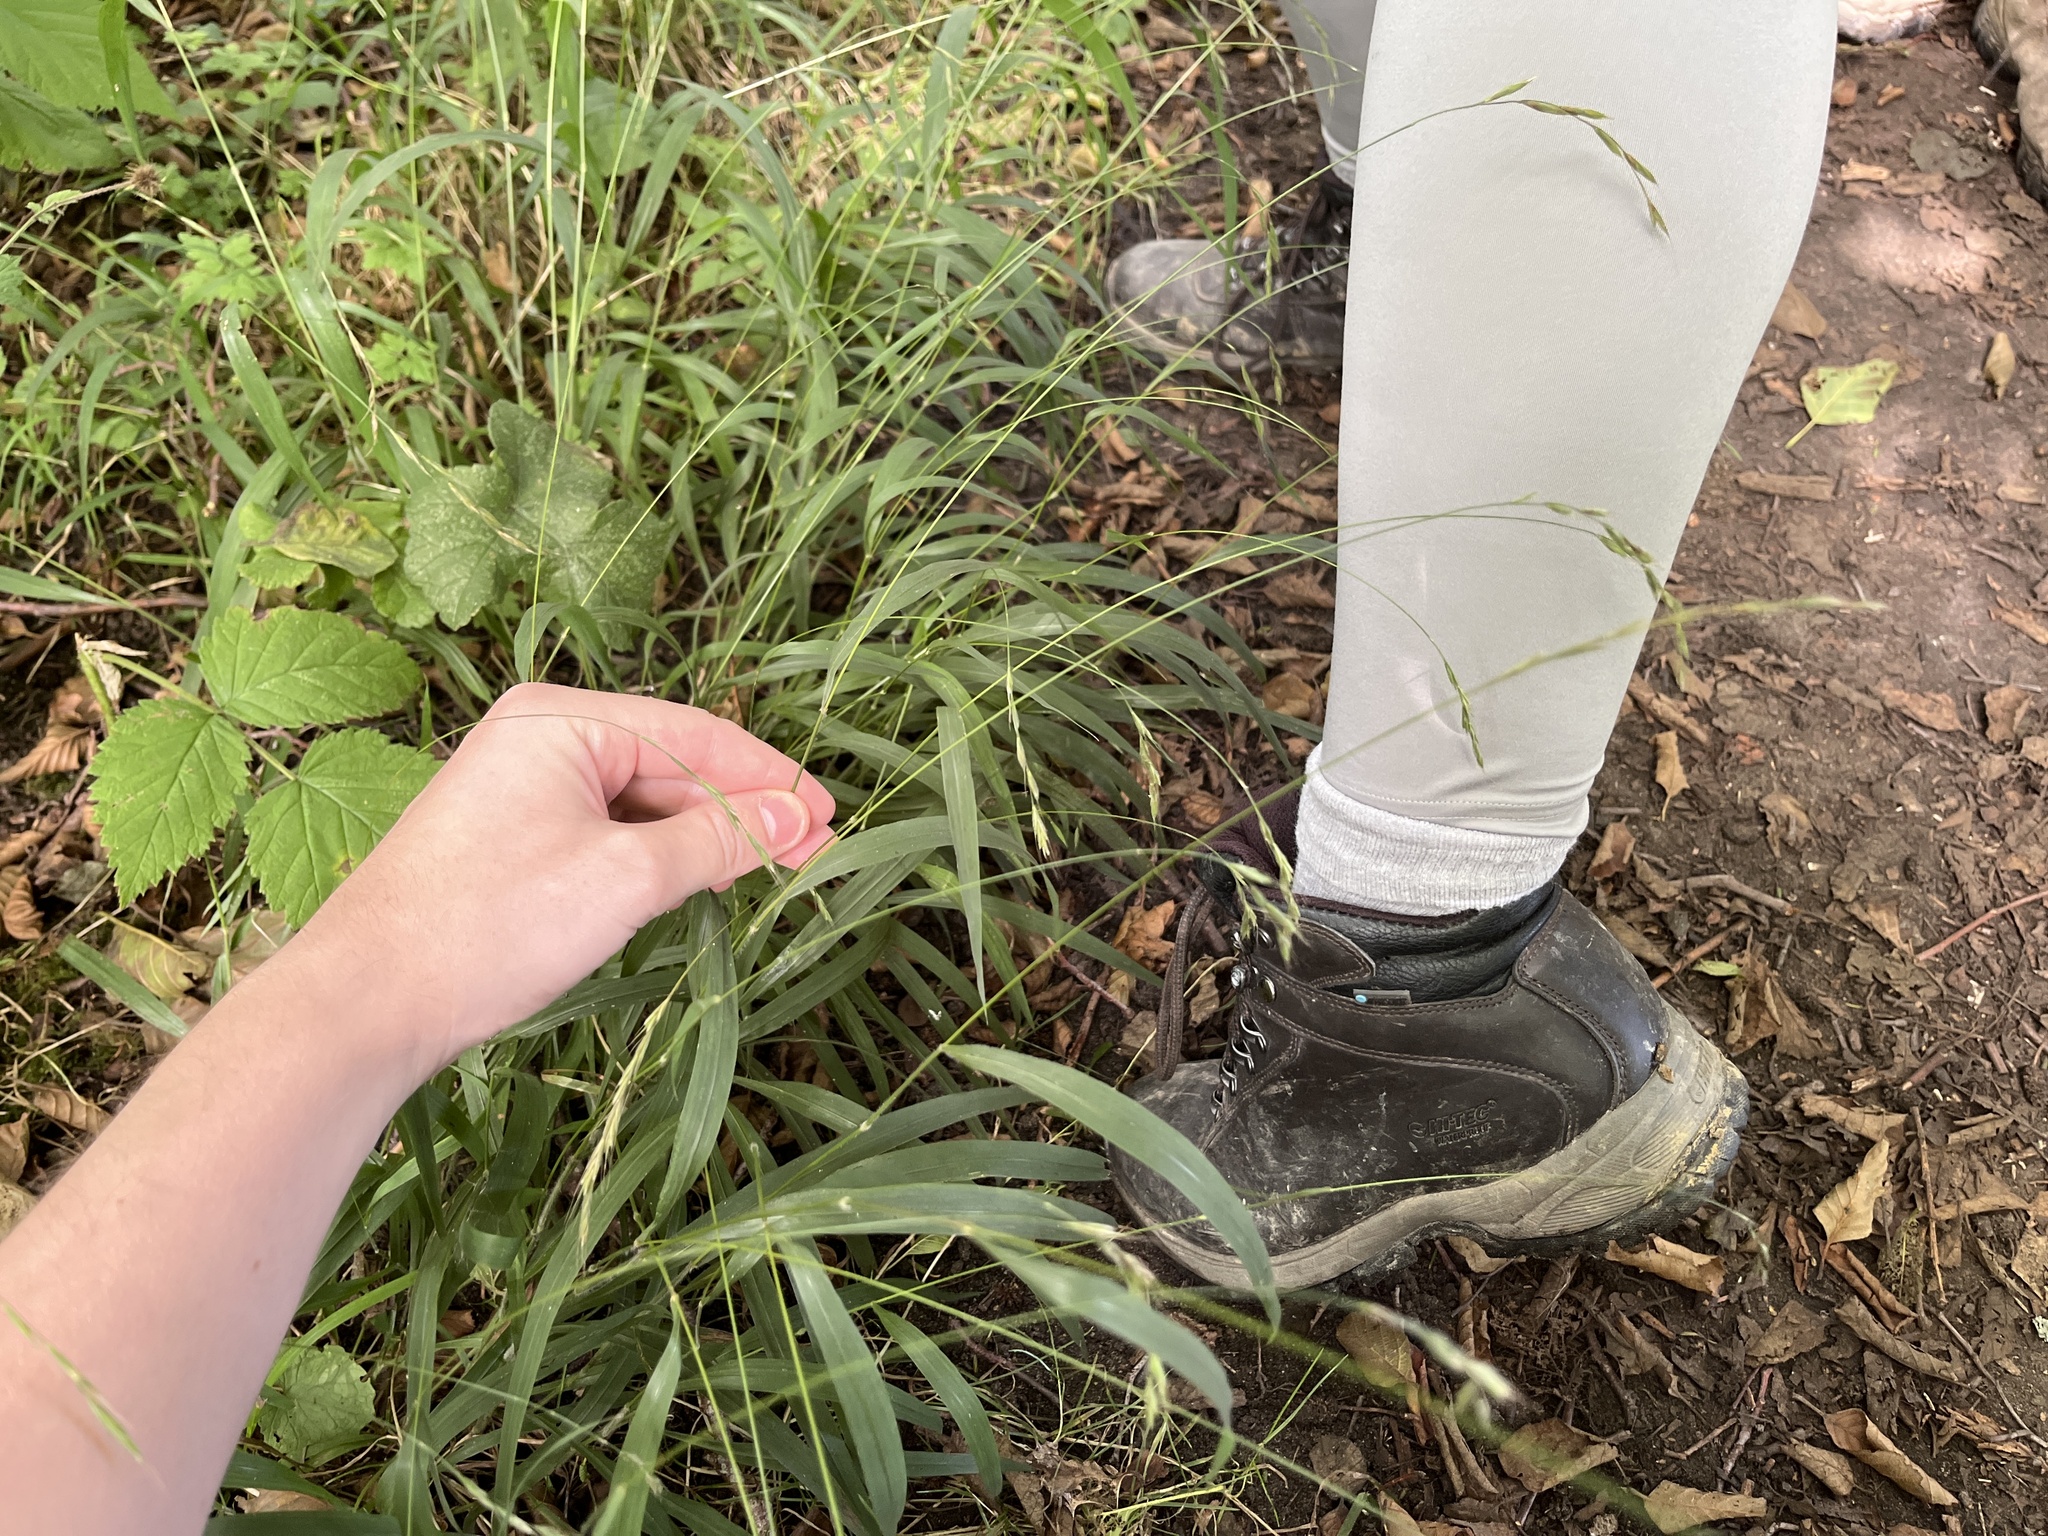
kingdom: Plantae
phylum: Tracheophyta
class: Liliopsida
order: Poales
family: Poaceae
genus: Brachypodium
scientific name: Brachypodium sylvaticum
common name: False-brome
